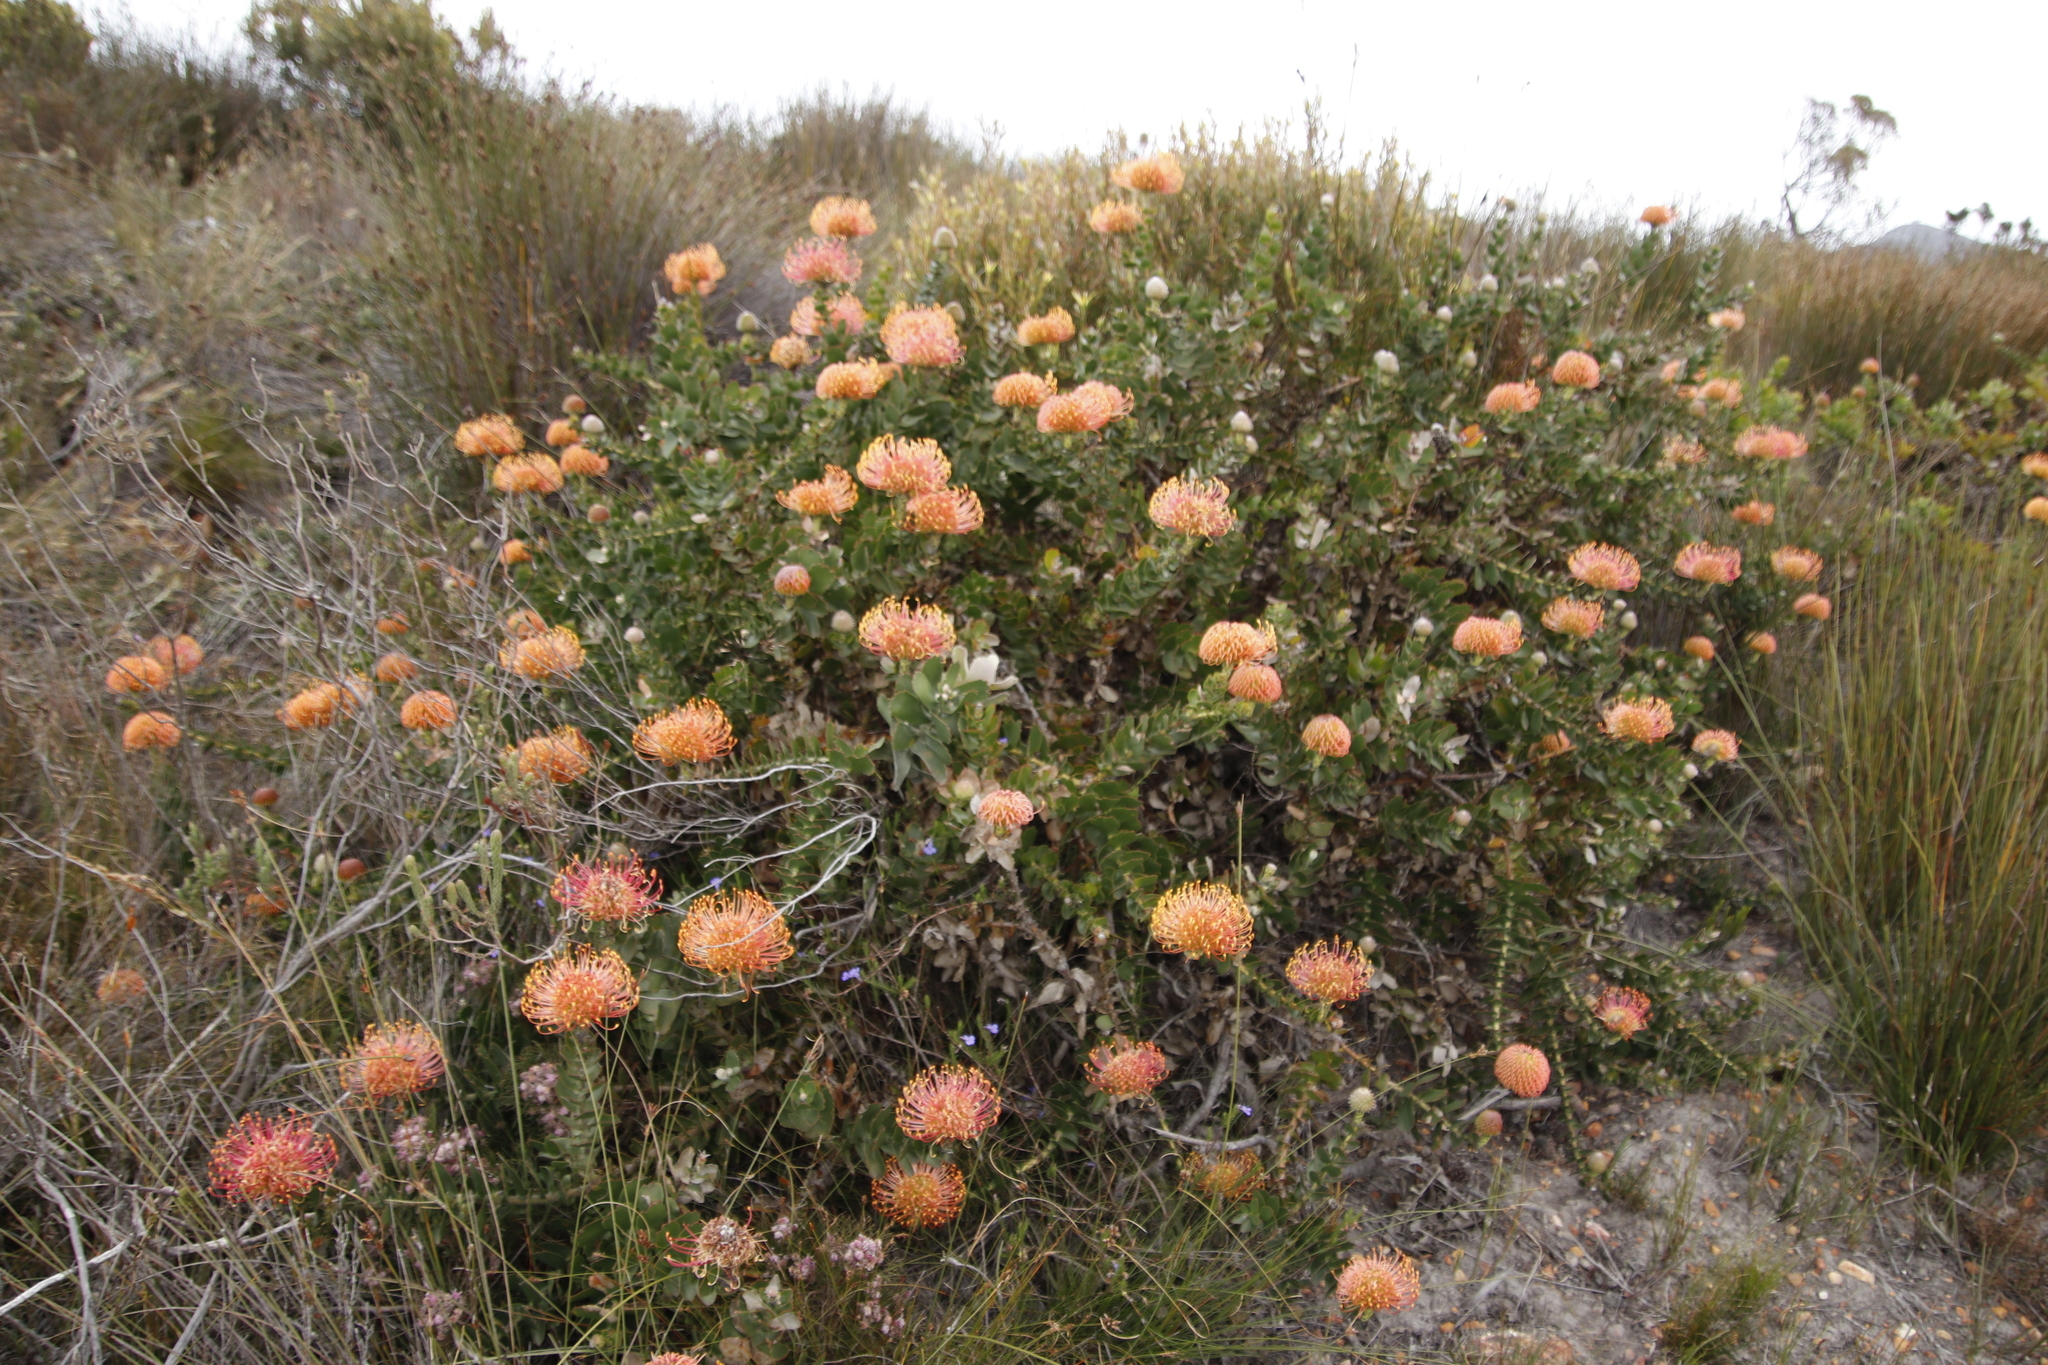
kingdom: Plantae
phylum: Tracheophyta
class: Magnoliopsida
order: Proteales
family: Proteaceae
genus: Leucospermum
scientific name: Leucospermum cordifolium
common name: Red pincushion-protea
